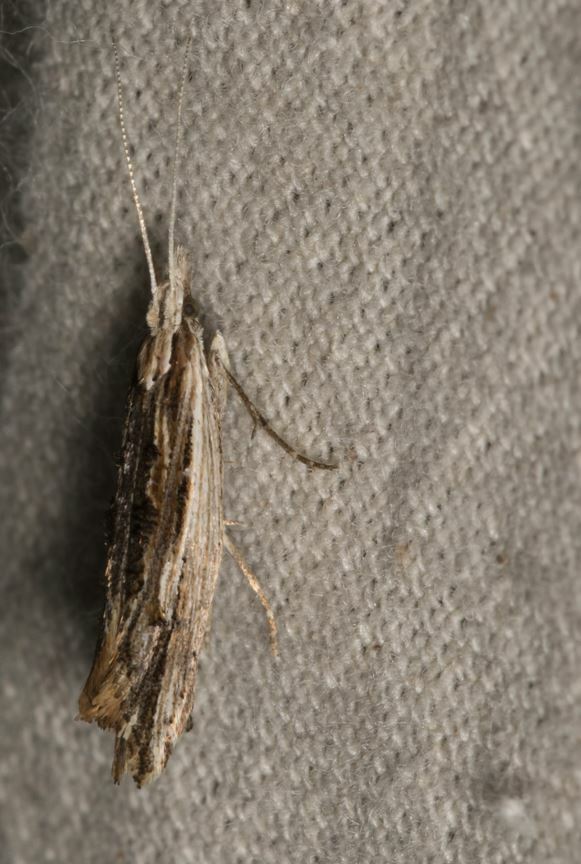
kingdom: Animalia
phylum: Arthropoda
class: Insecta
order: Lepidoptera
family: Ypsolophidae
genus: Ypsolopha
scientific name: Ypsolopha scabrella
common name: Wainscot smudge
